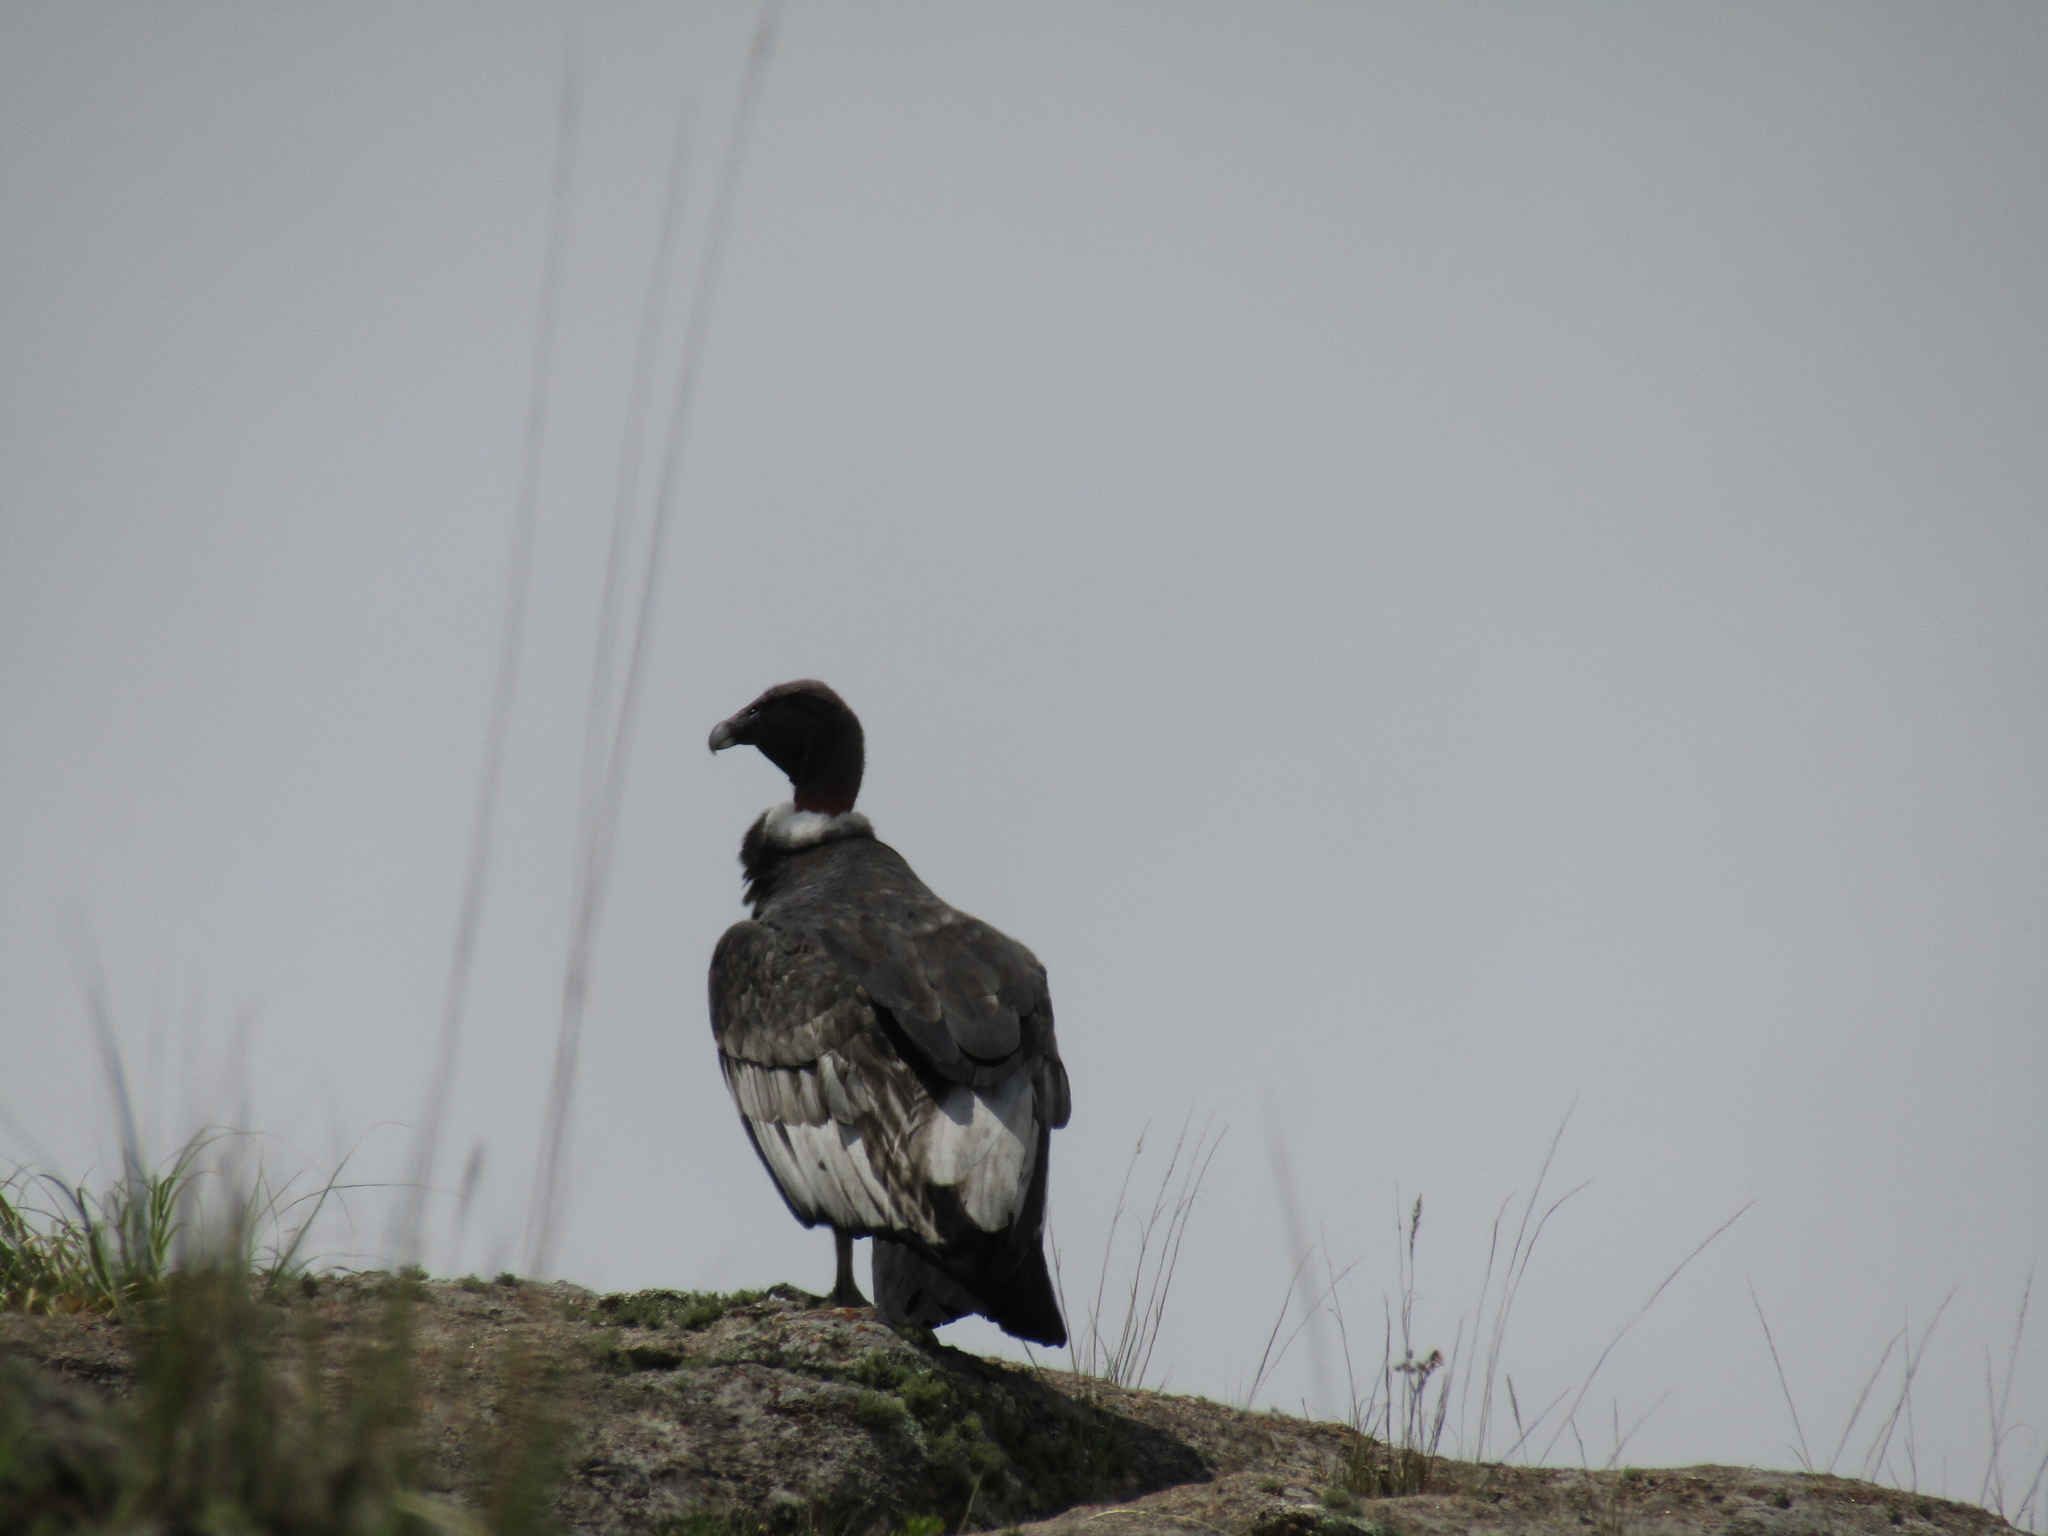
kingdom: Animalia
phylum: Chordata
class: Aves
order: Accipitriformes
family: Cathartidae
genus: Vultur
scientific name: Vultur gryphus
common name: Andean condor
